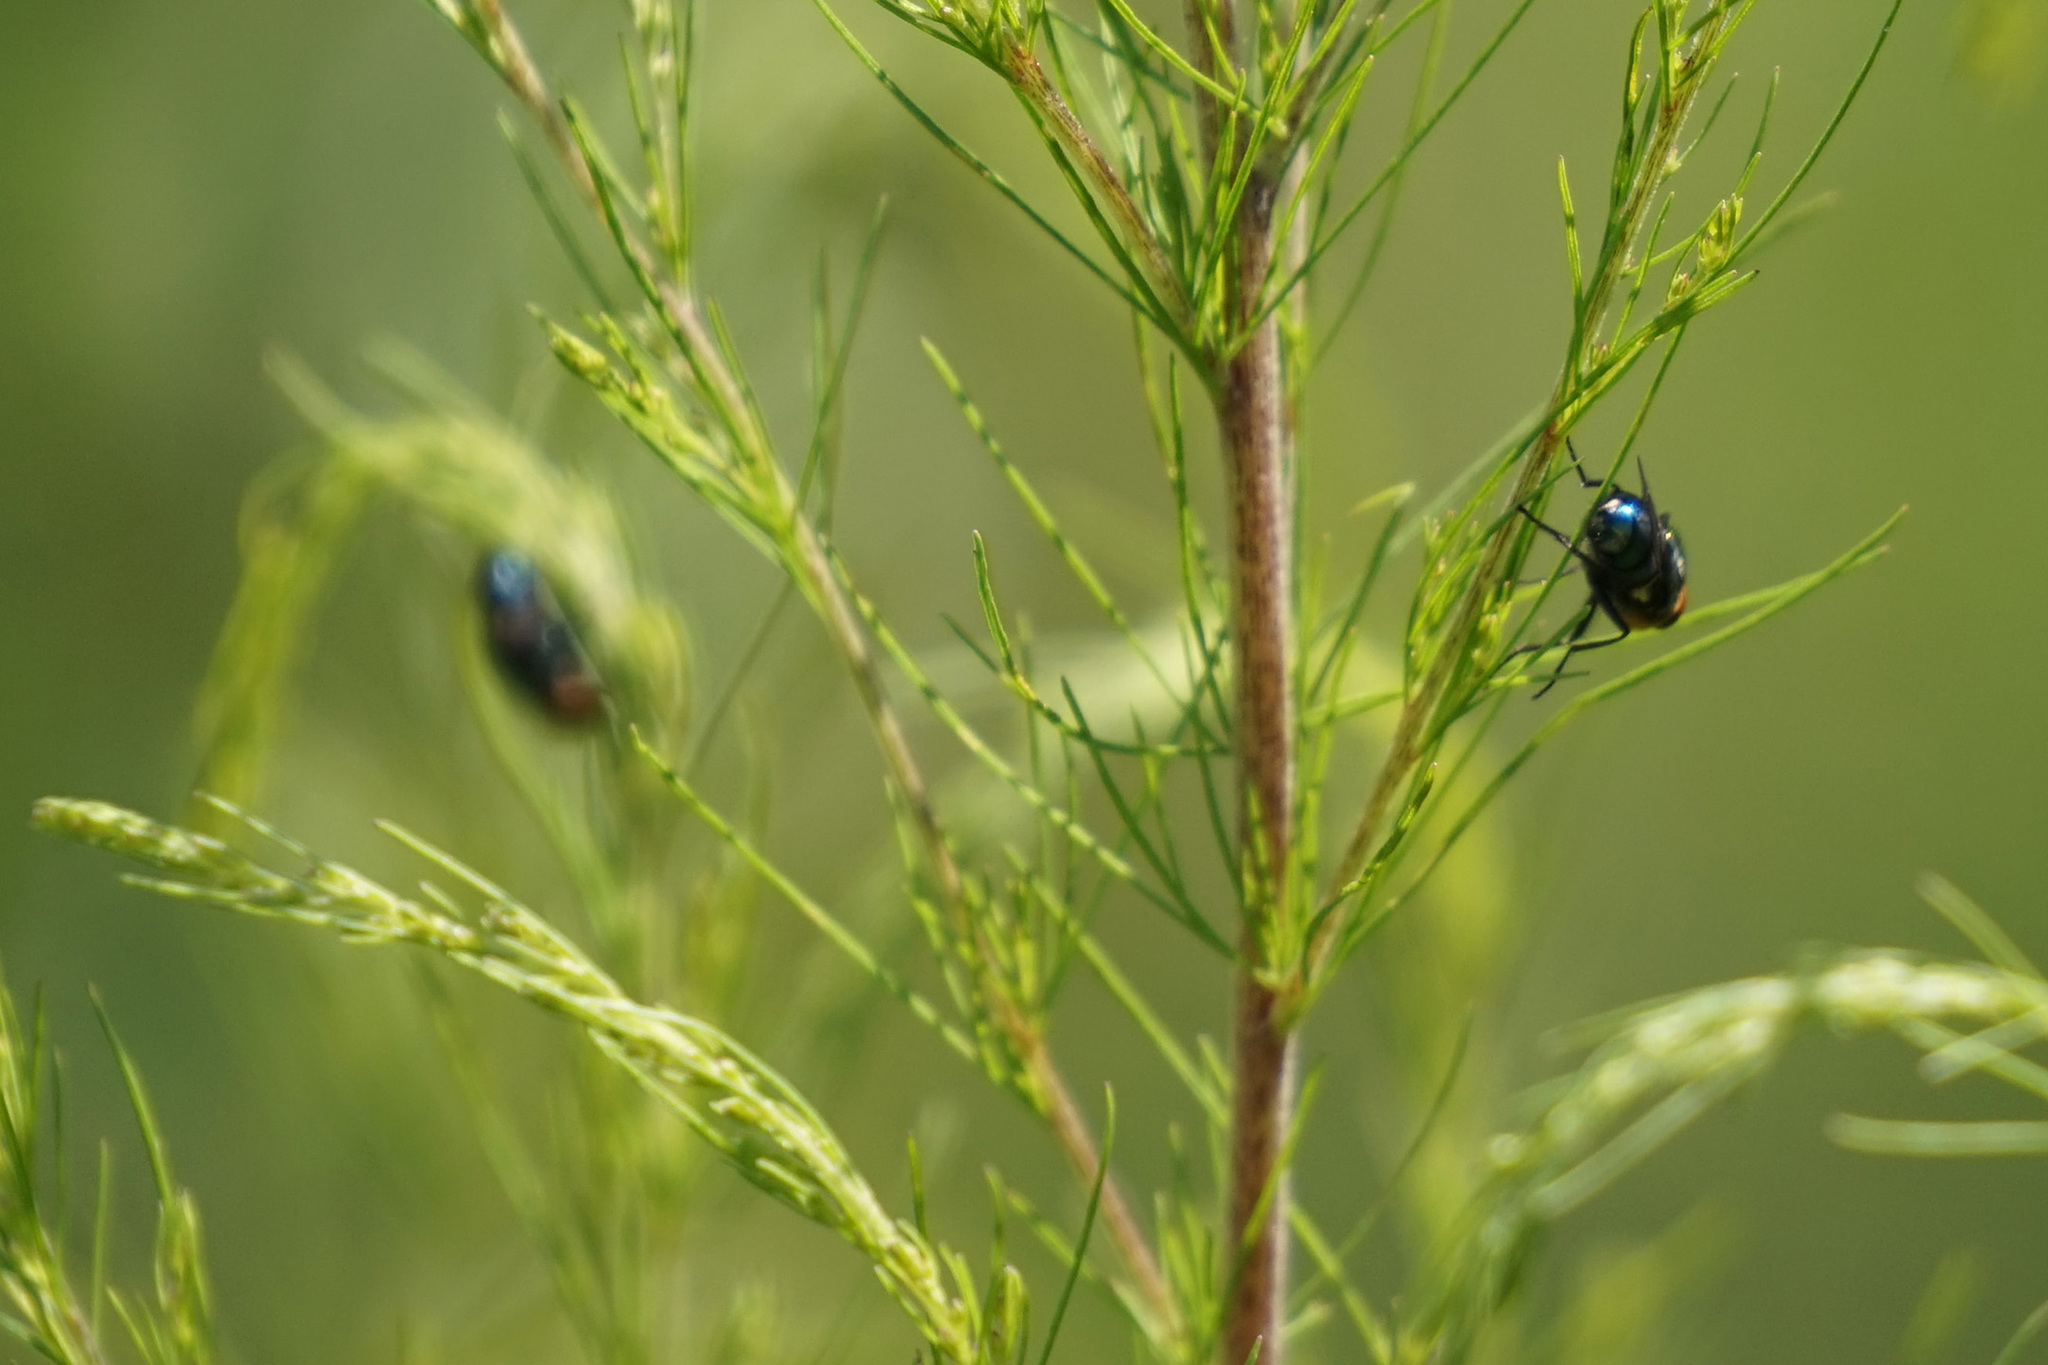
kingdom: Animalia
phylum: Arthropoda
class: Insecta
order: Diptera
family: Calliphoridae
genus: Cochliomyia
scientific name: Cochliomyia macellaria
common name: Secondary screwworm
